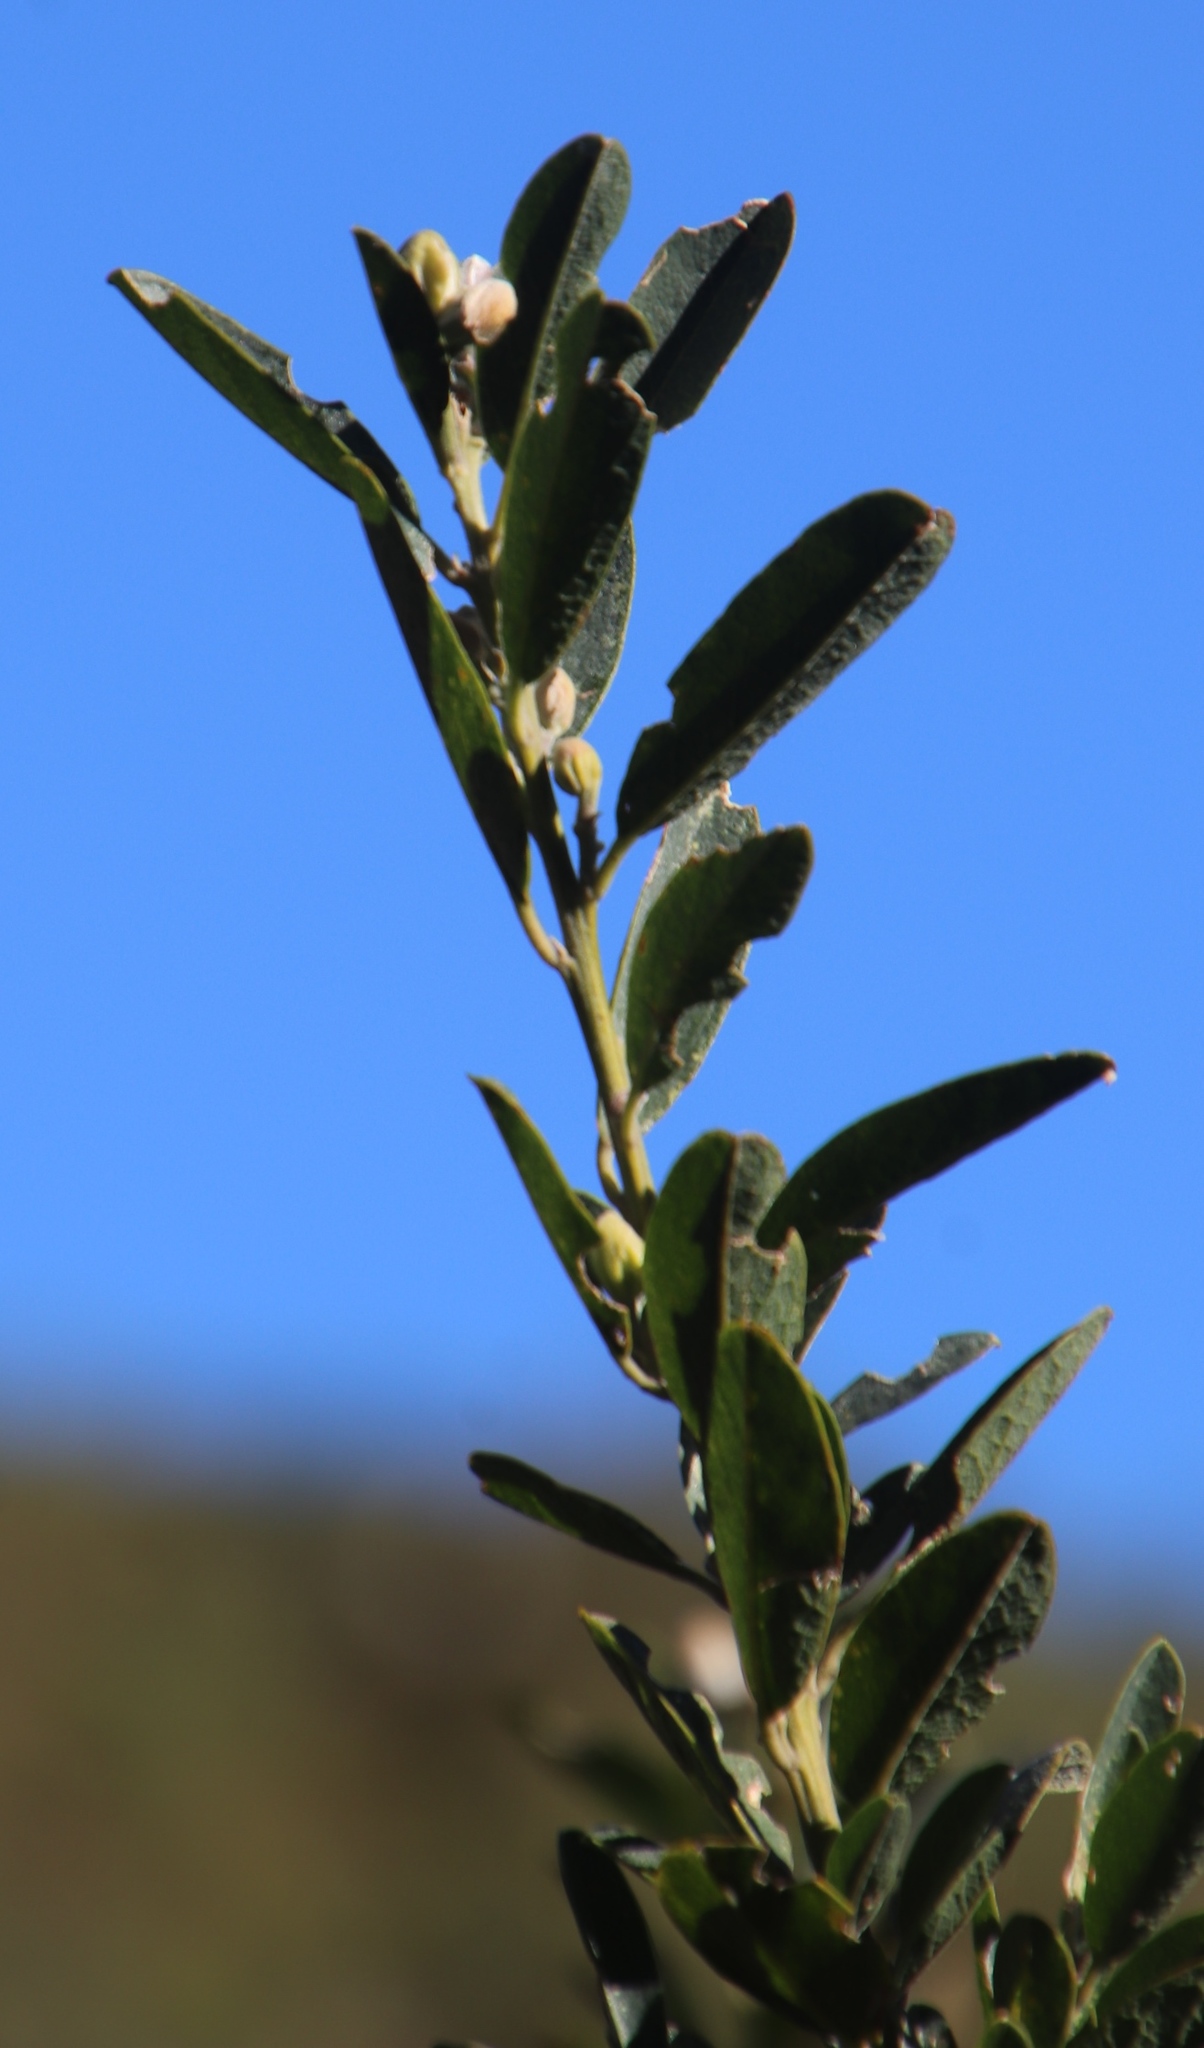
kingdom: Plantae
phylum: Tracheophyta
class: Magnoliopsida
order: Fabales
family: Fabaceae
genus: Podalyria
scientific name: Podalyria calyptrata
